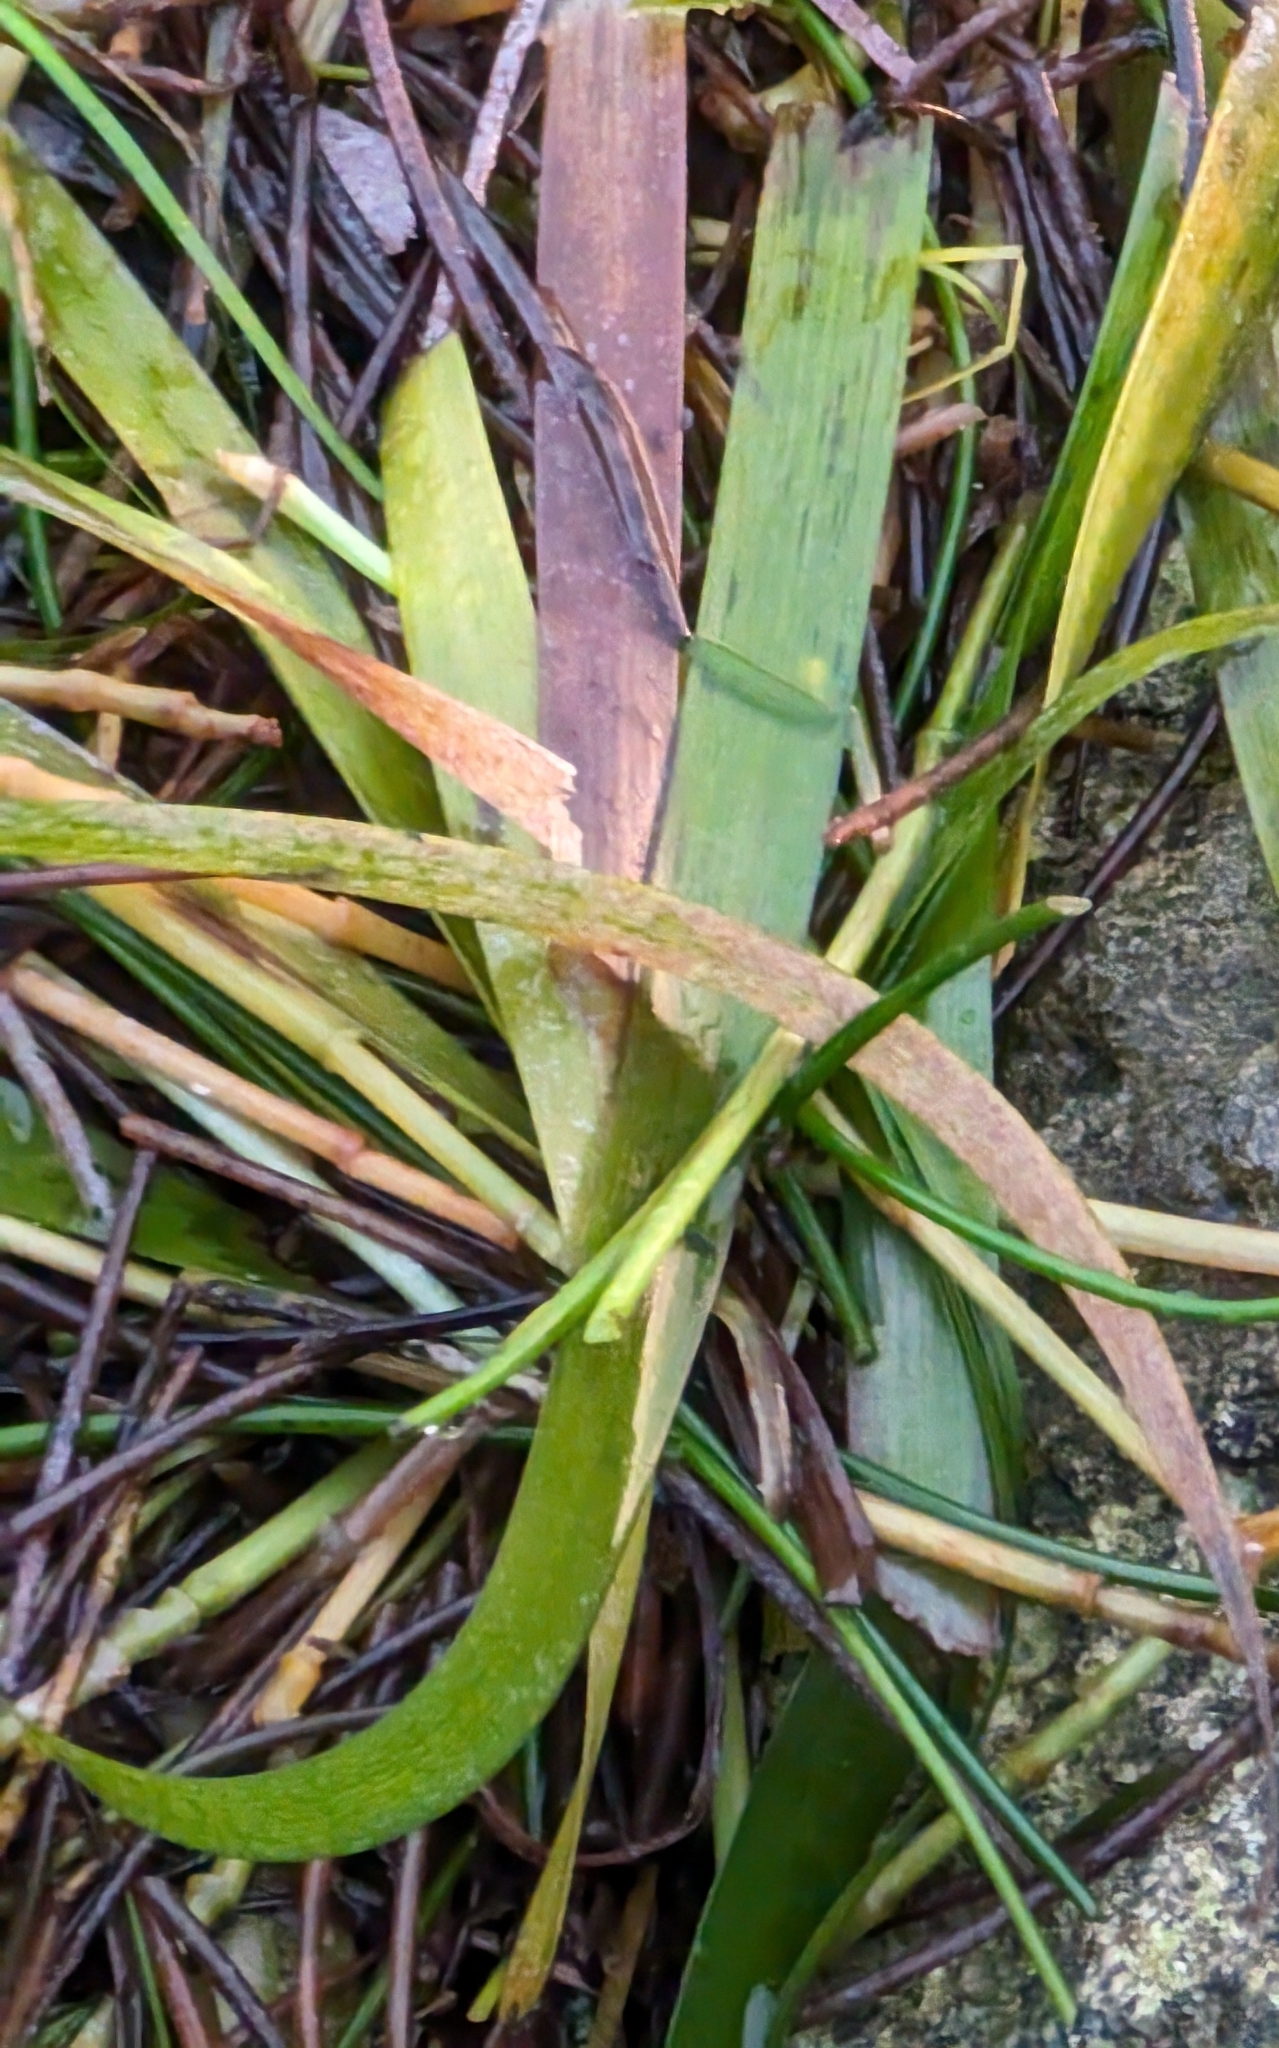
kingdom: Plantae
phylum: Tracheophyta
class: Liliopsida
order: Alismatales
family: Hydrocharitaceae
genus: Thalassia
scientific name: Thalassia testudinum
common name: Species code: tt
